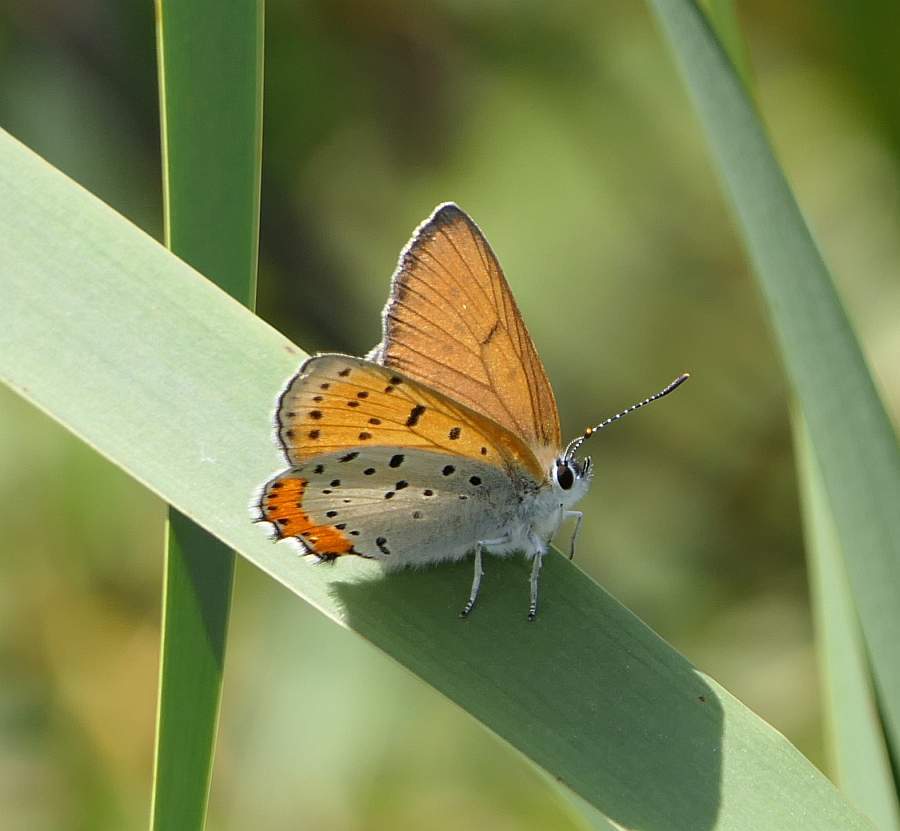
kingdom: Animalia
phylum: Arthropoda
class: Insecta
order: Lepidoptera
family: Lycaenidae
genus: Tharsalea
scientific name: Tharsalea hyllus
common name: Bronze copper
